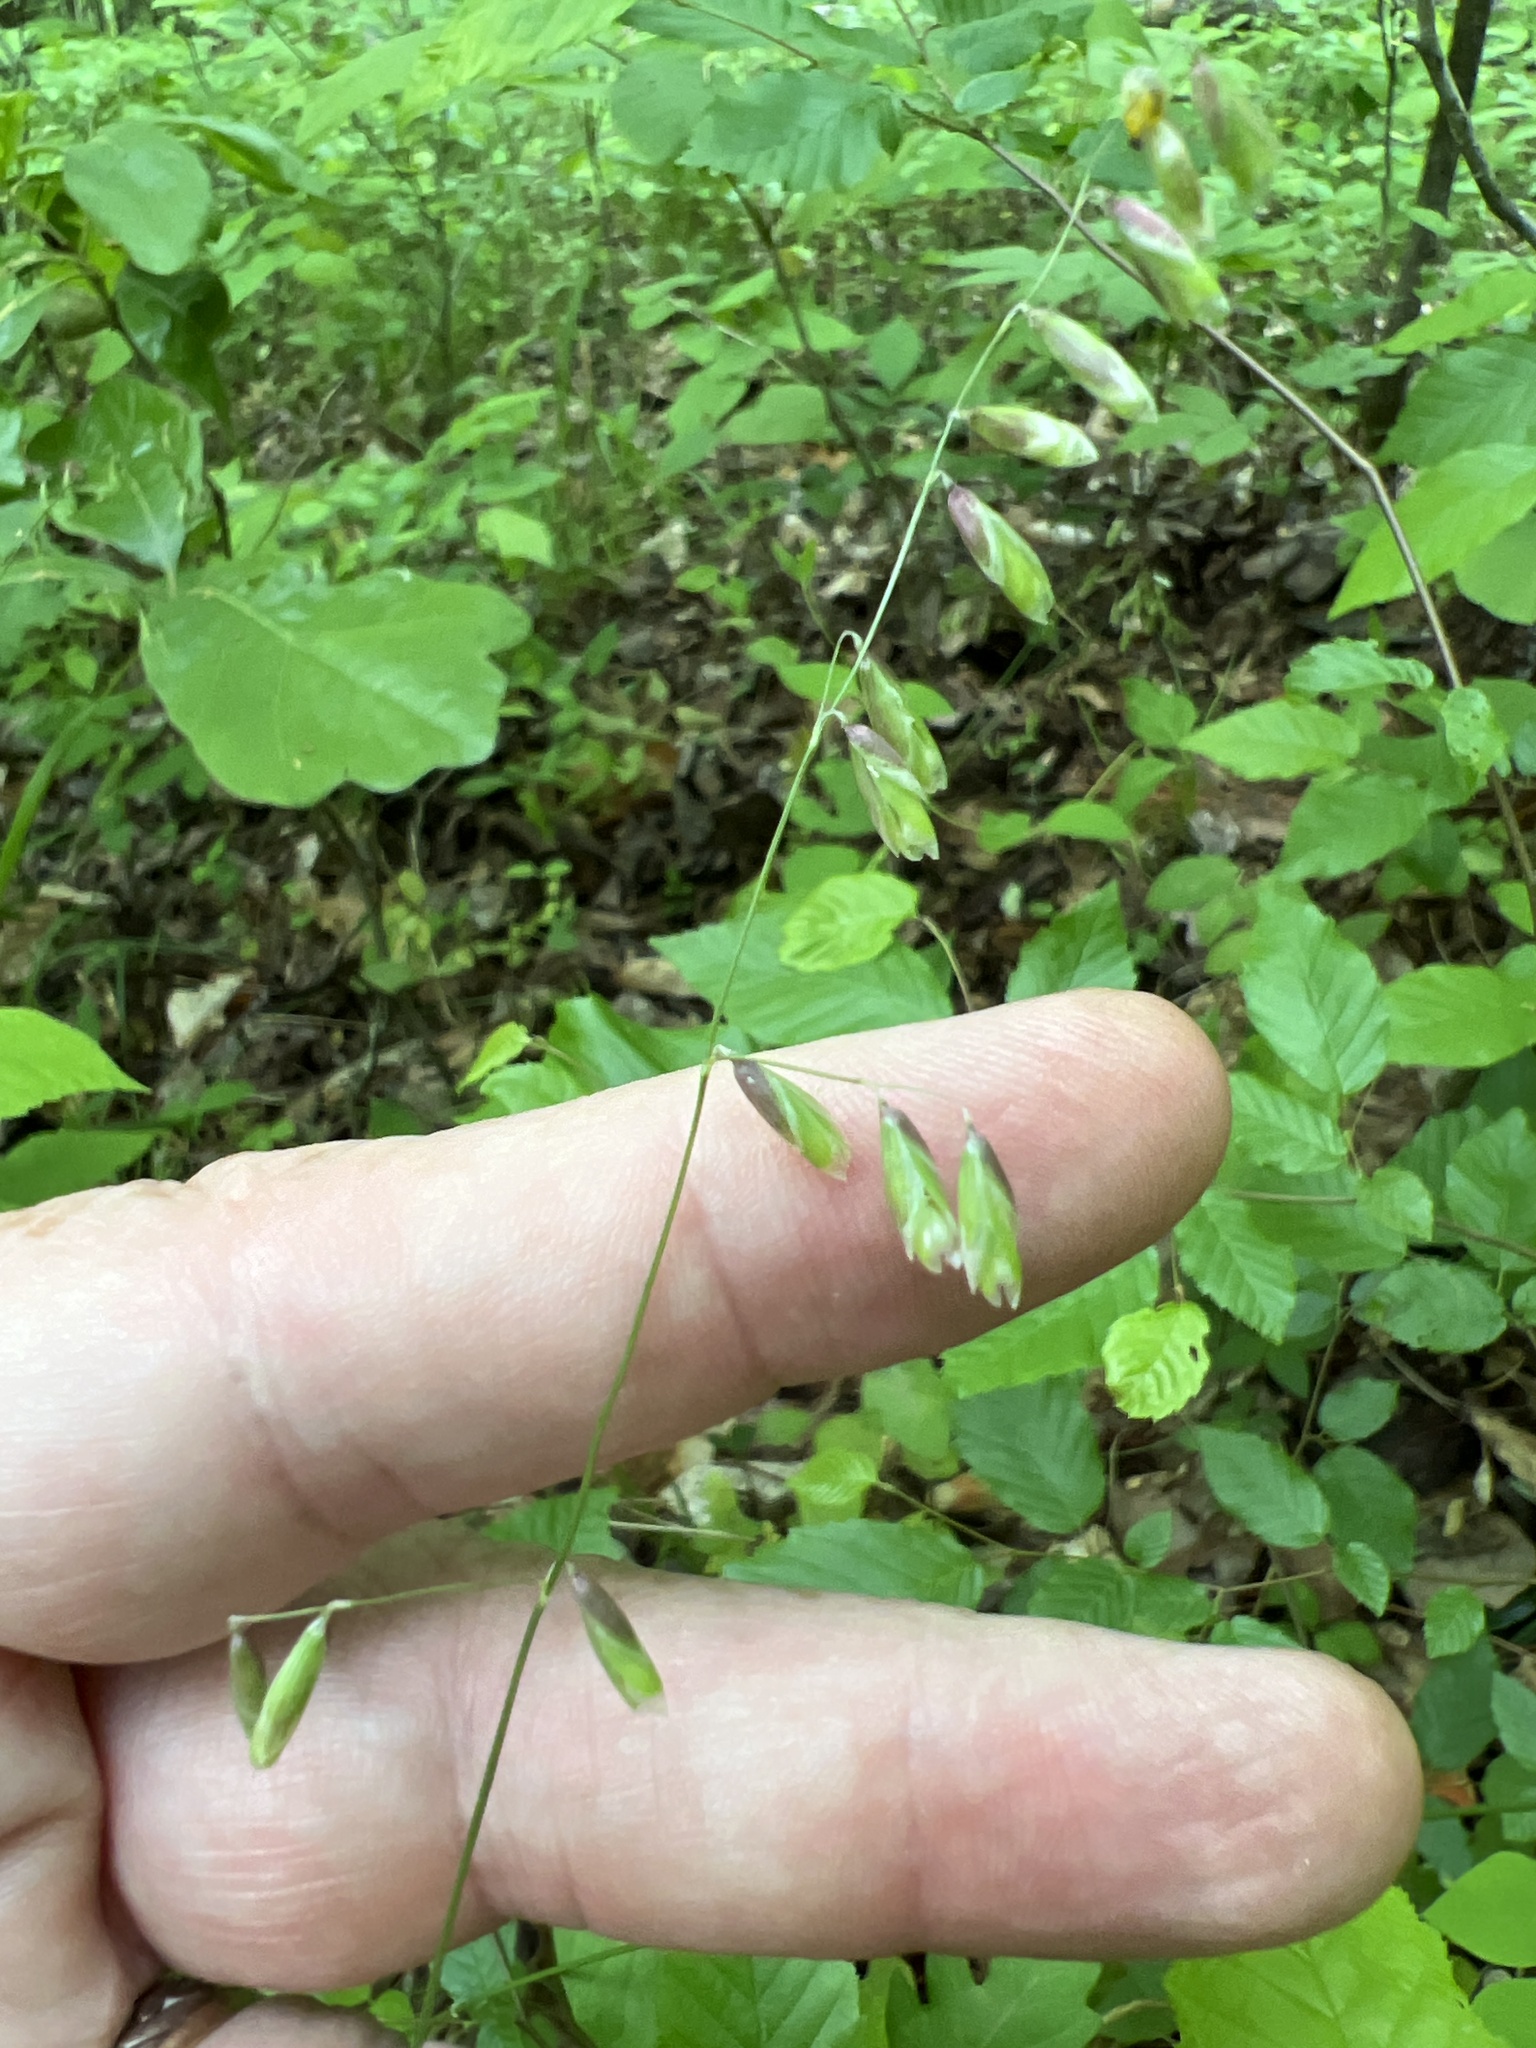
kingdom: Plantae
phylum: Tracheophyta
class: Liliopsida
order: Poales
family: Poaceae
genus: Melica
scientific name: Melica mutica
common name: Two-flower melic
